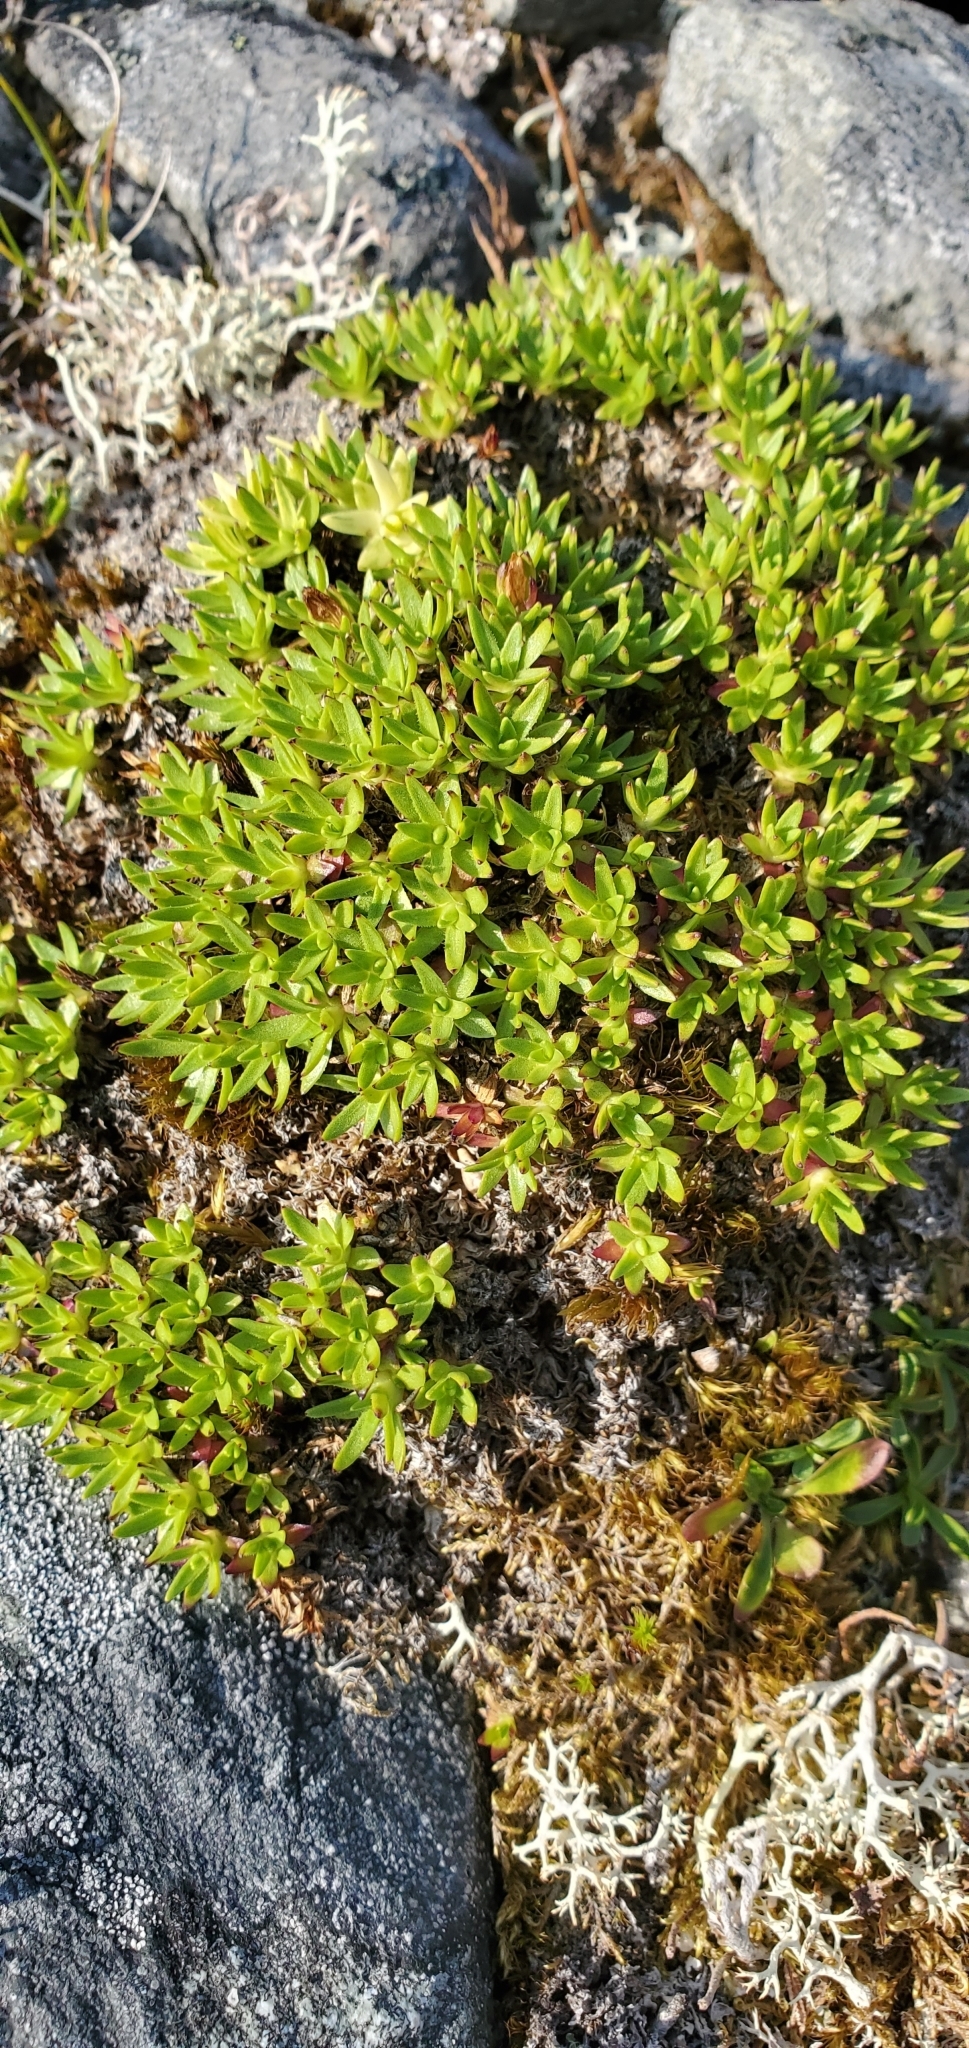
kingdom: Plantae
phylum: Tracheophyta
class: Magnoliopsida
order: Caryophyllales
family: Caryophyllaceae
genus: Silene
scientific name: Silene acaulis
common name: Moss campion
